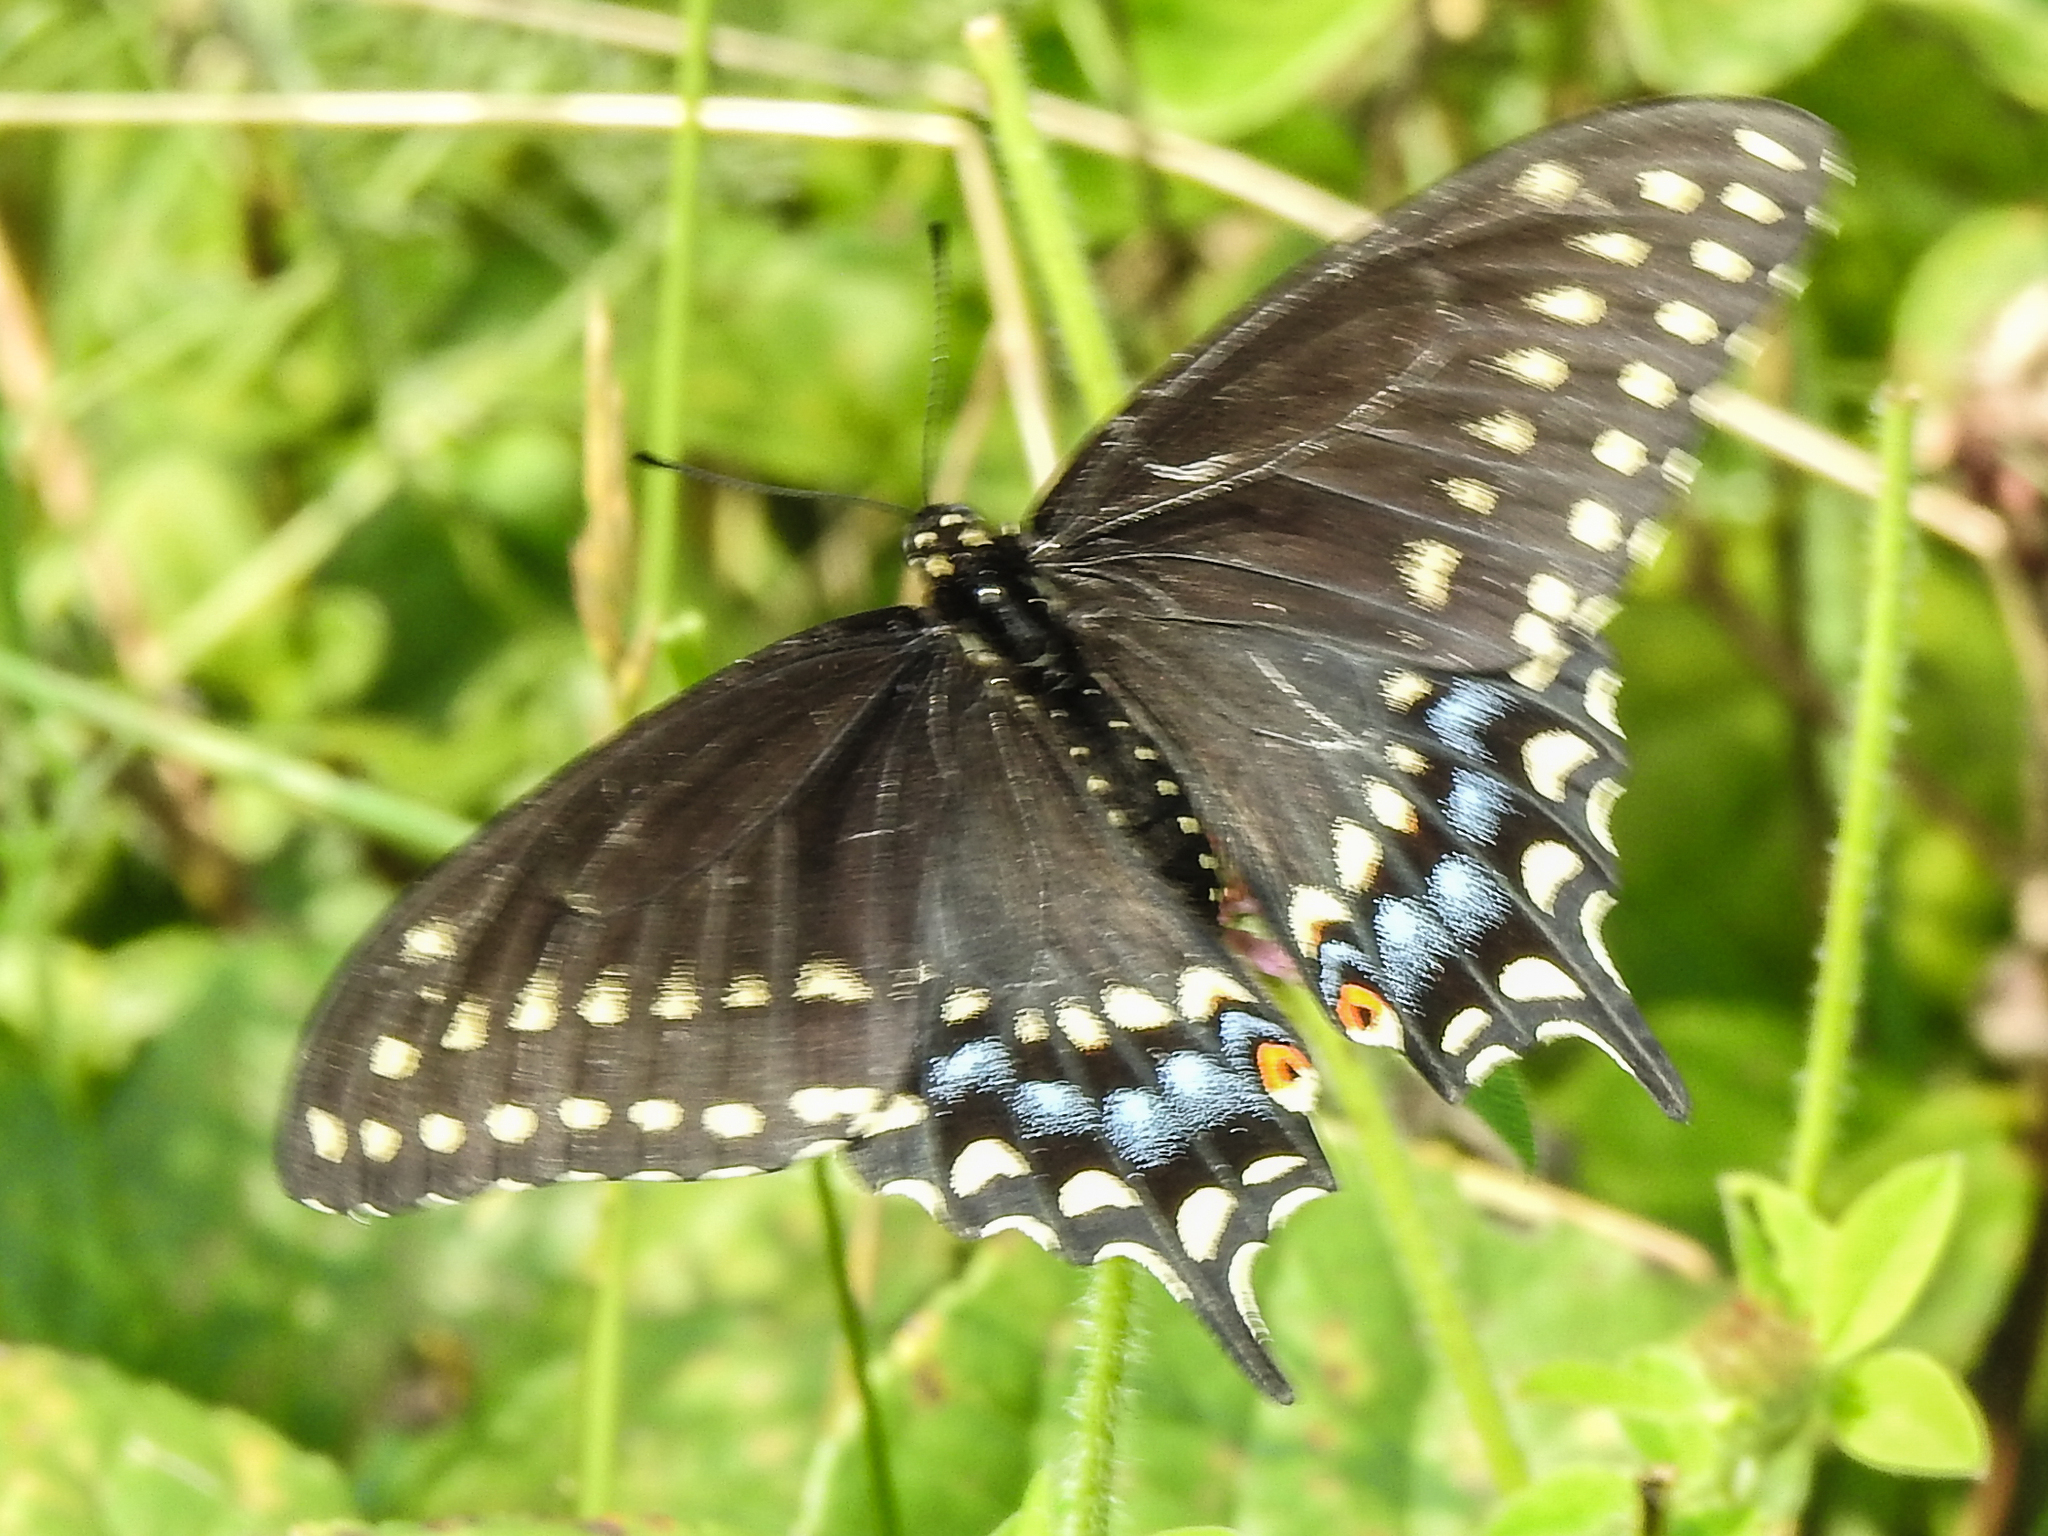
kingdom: Animalia
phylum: Arthropoda
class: Insecta
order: Lepidoptera
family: Papilionidae
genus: Papilio
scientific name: Papilio polyxenes
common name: Black swallowtail
